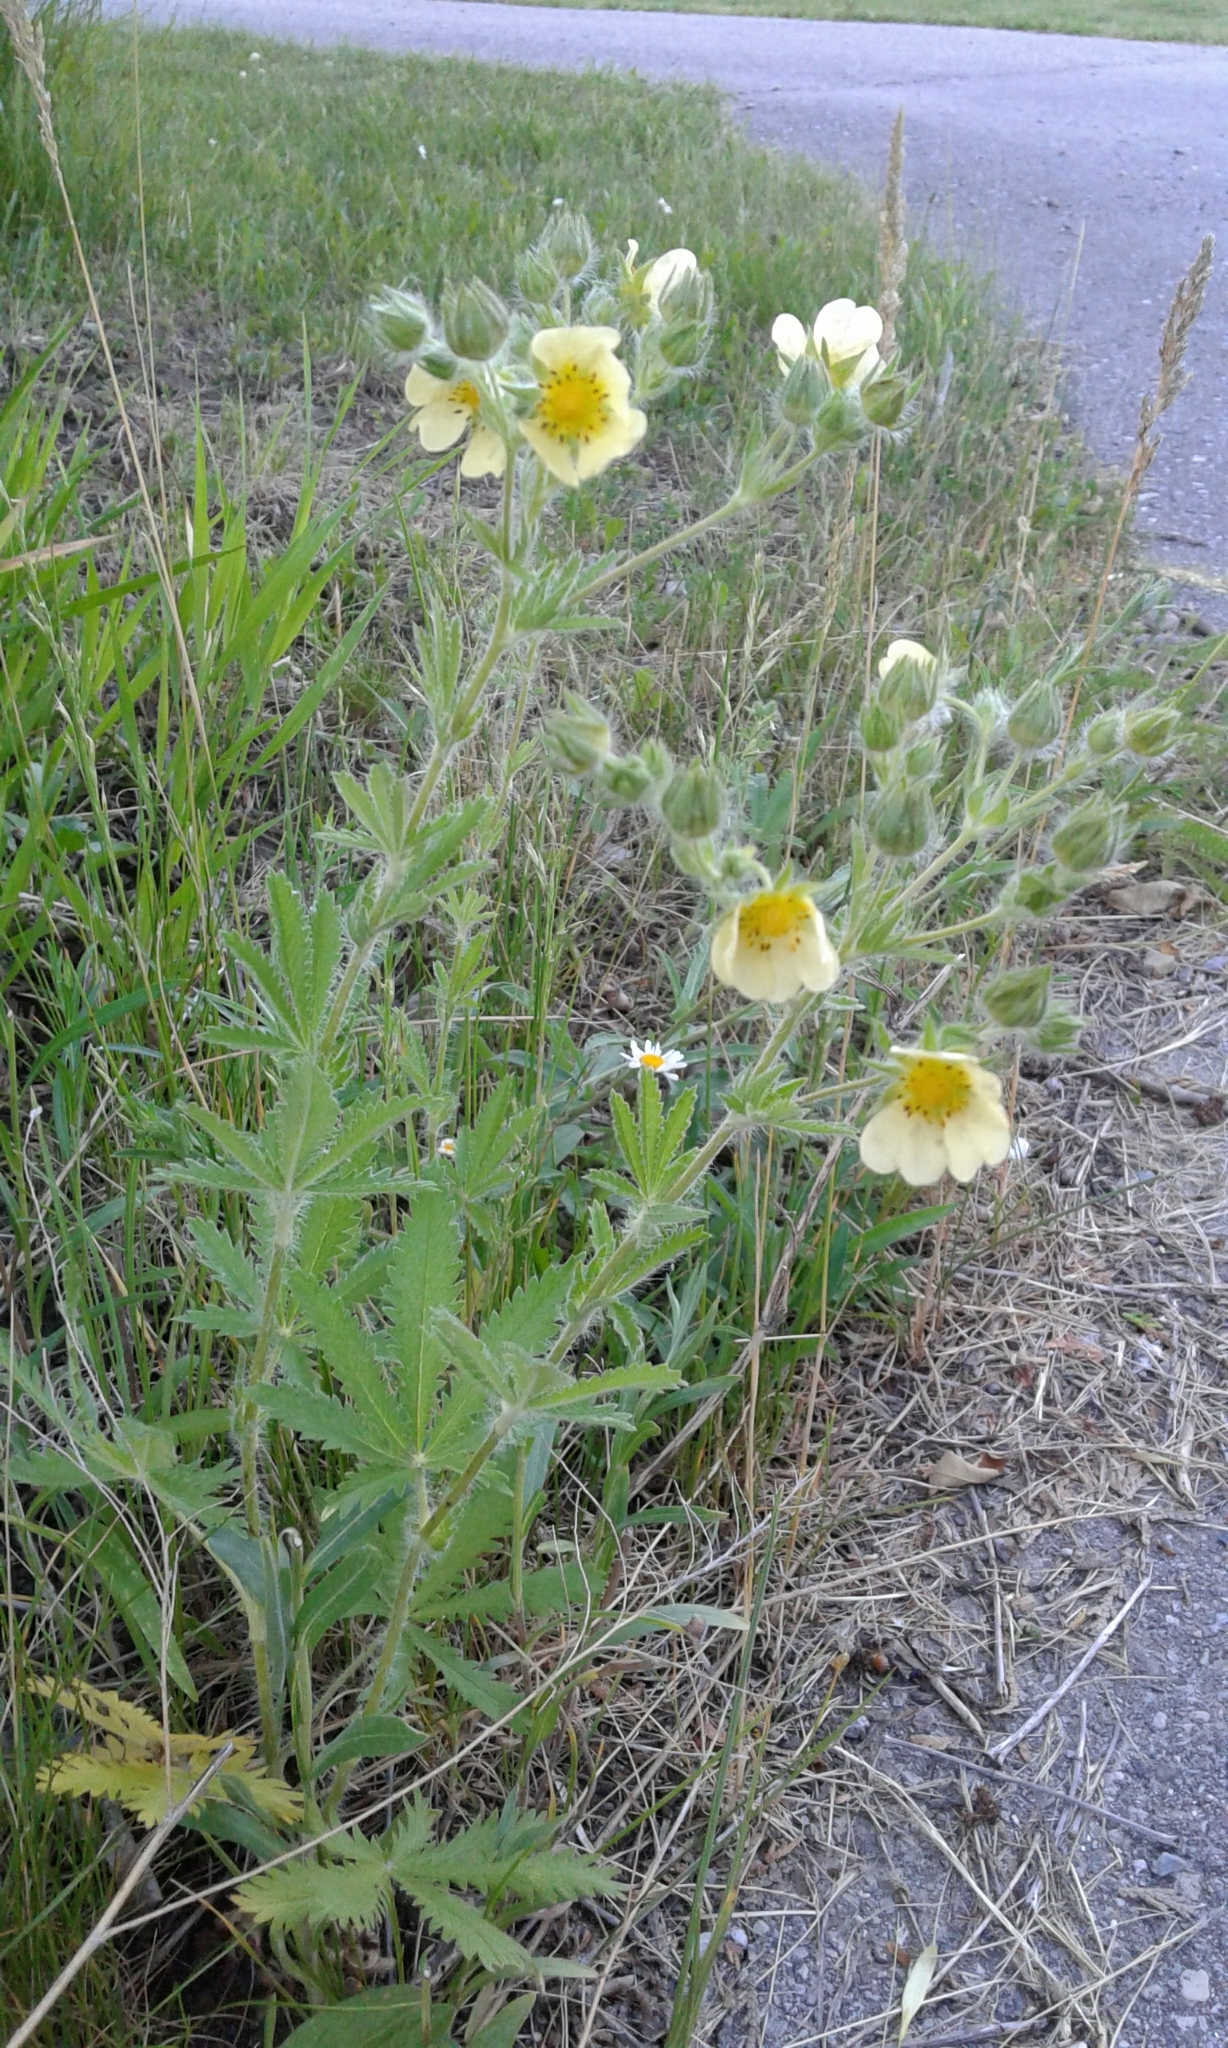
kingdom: Plantae
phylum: Tracheophyta
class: Magnoliopsida
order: Rosales
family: Rosaceae
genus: Potentilla
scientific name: Potentilla recta
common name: Sulphur cinquefoil
